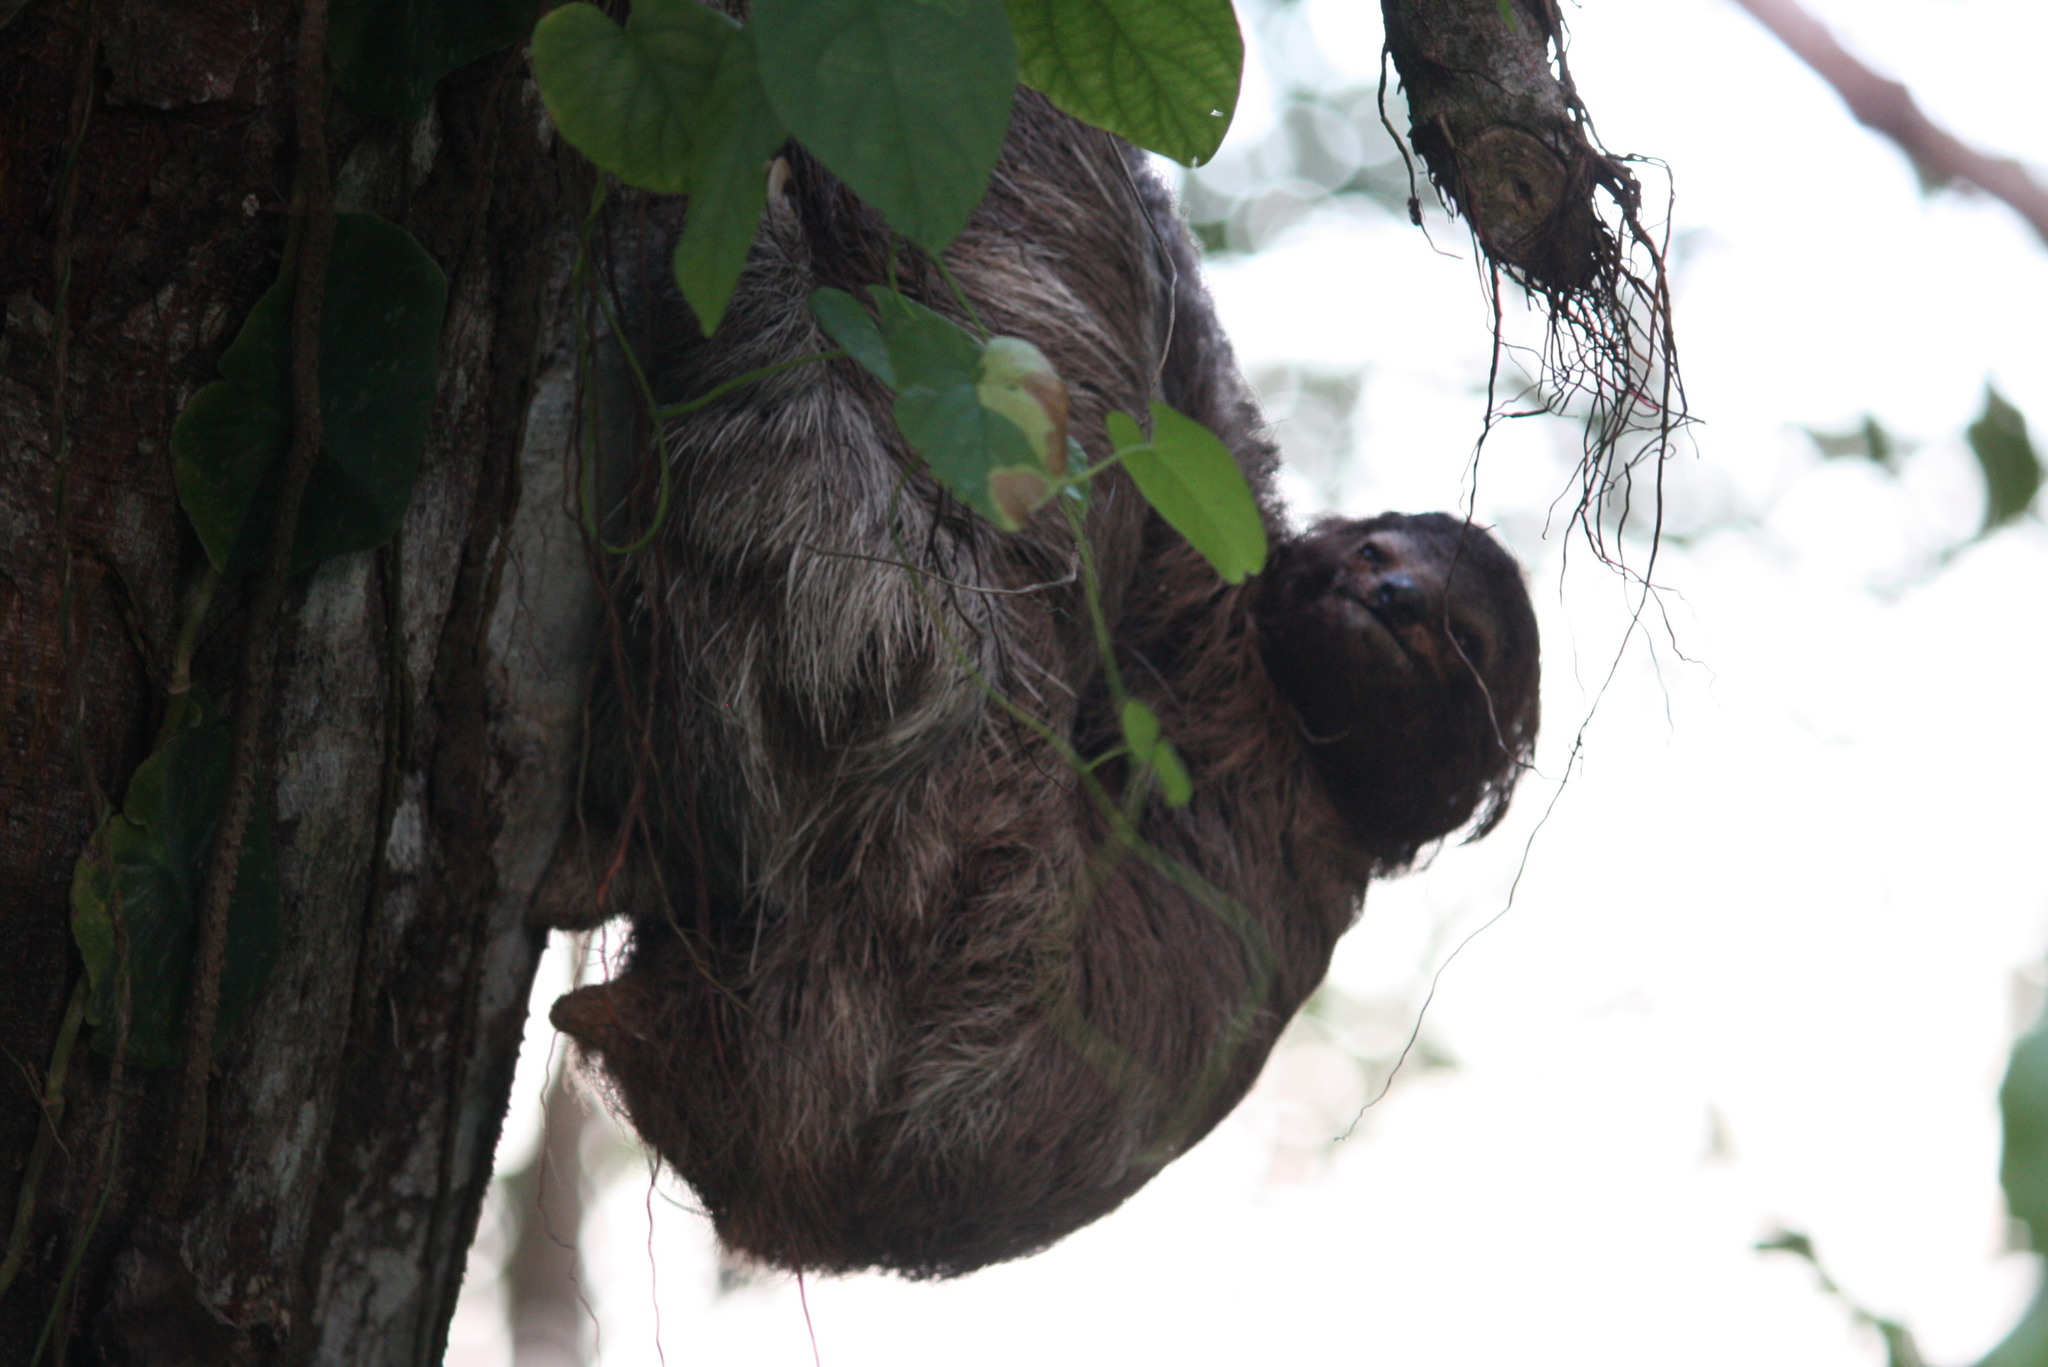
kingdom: Animalia
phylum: Chordata
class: Mammalia
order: Pilosa
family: Bradypodidae
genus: Bradypus
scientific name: Bradypus variegatus
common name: Brown-throated three-toed sloth
